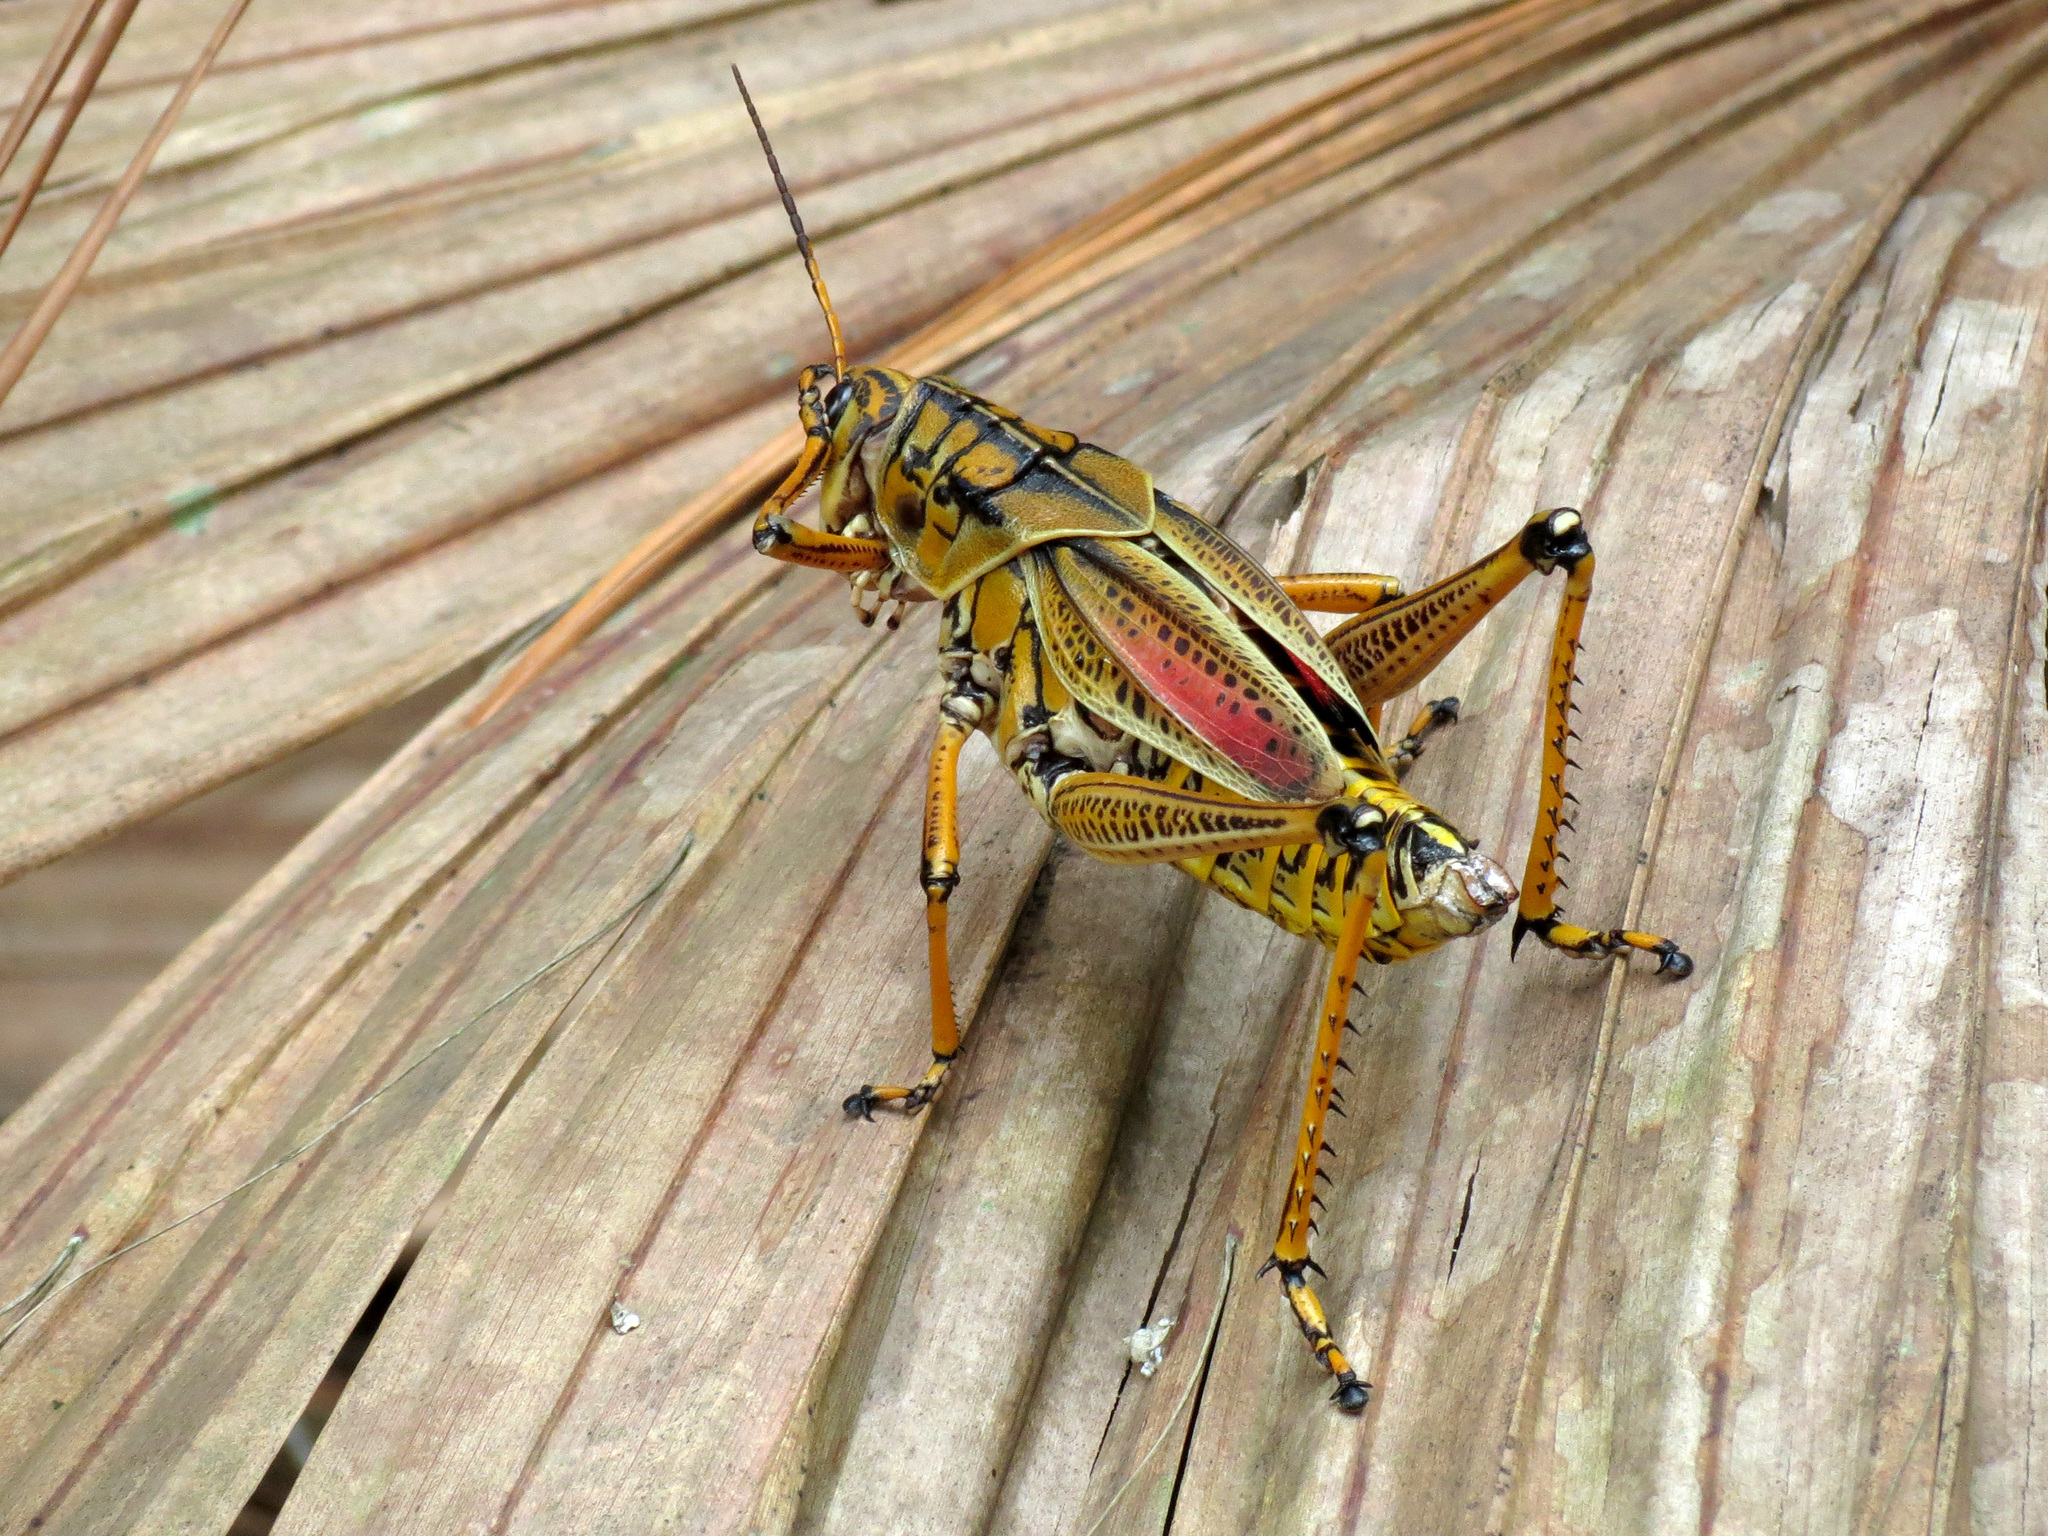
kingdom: Animalia
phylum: Arthropoda
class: Insecta
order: Orthoptera
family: Romaleidae
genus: Romalea
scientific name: Romalea microptera
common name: Eastern lubber grasshopper
